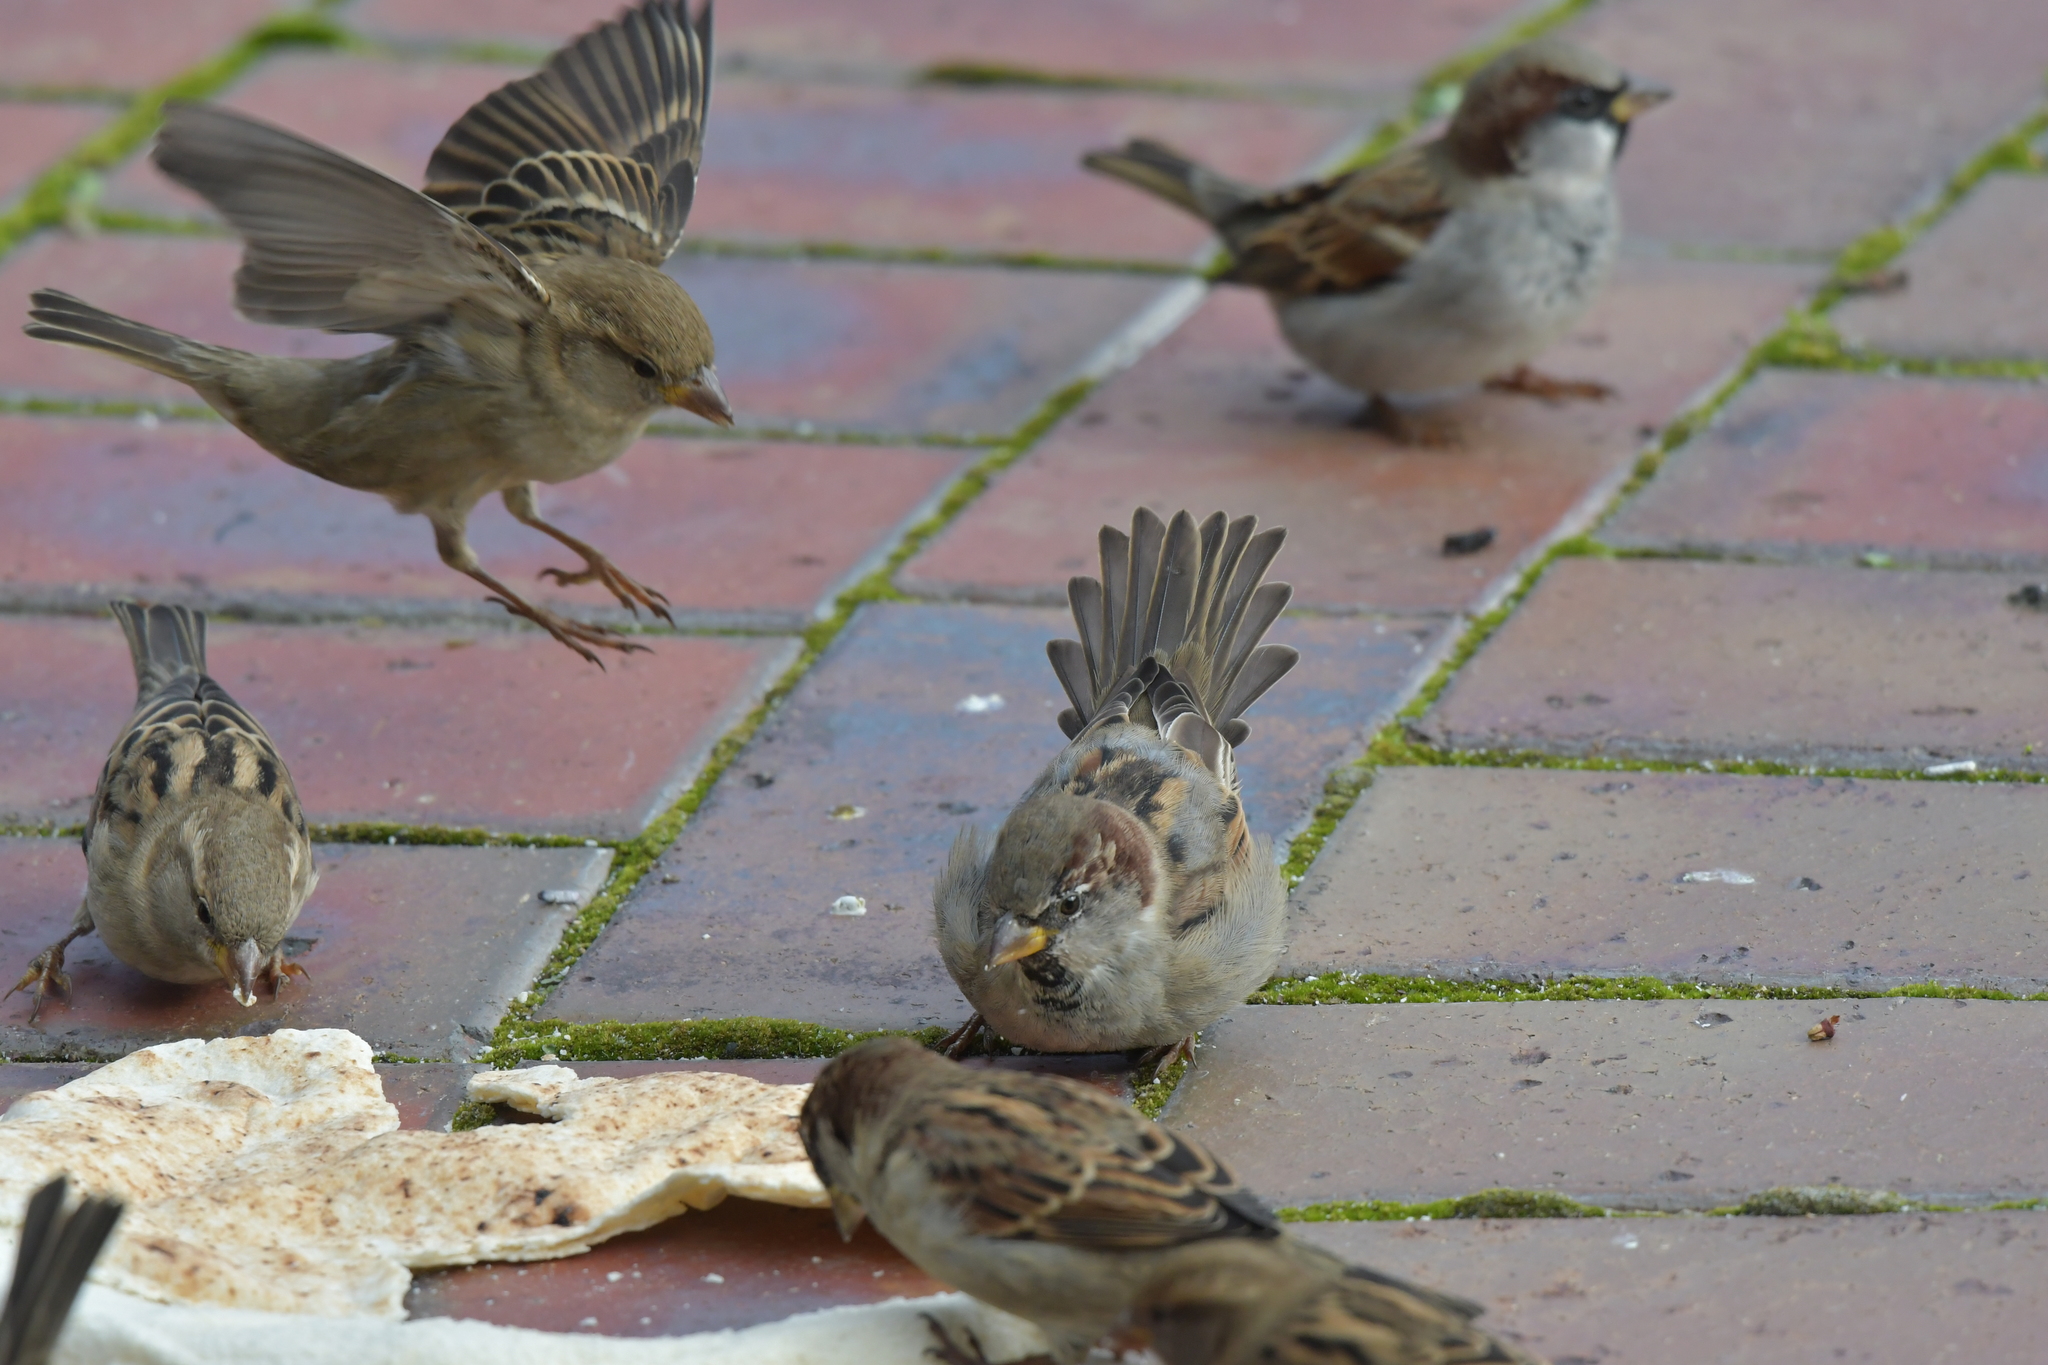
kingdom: Animalia
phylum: Chordata
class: Aves
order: Passeriformes
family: Passeridae
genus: Passer
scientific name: Passer domesticus
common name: House sparrow
